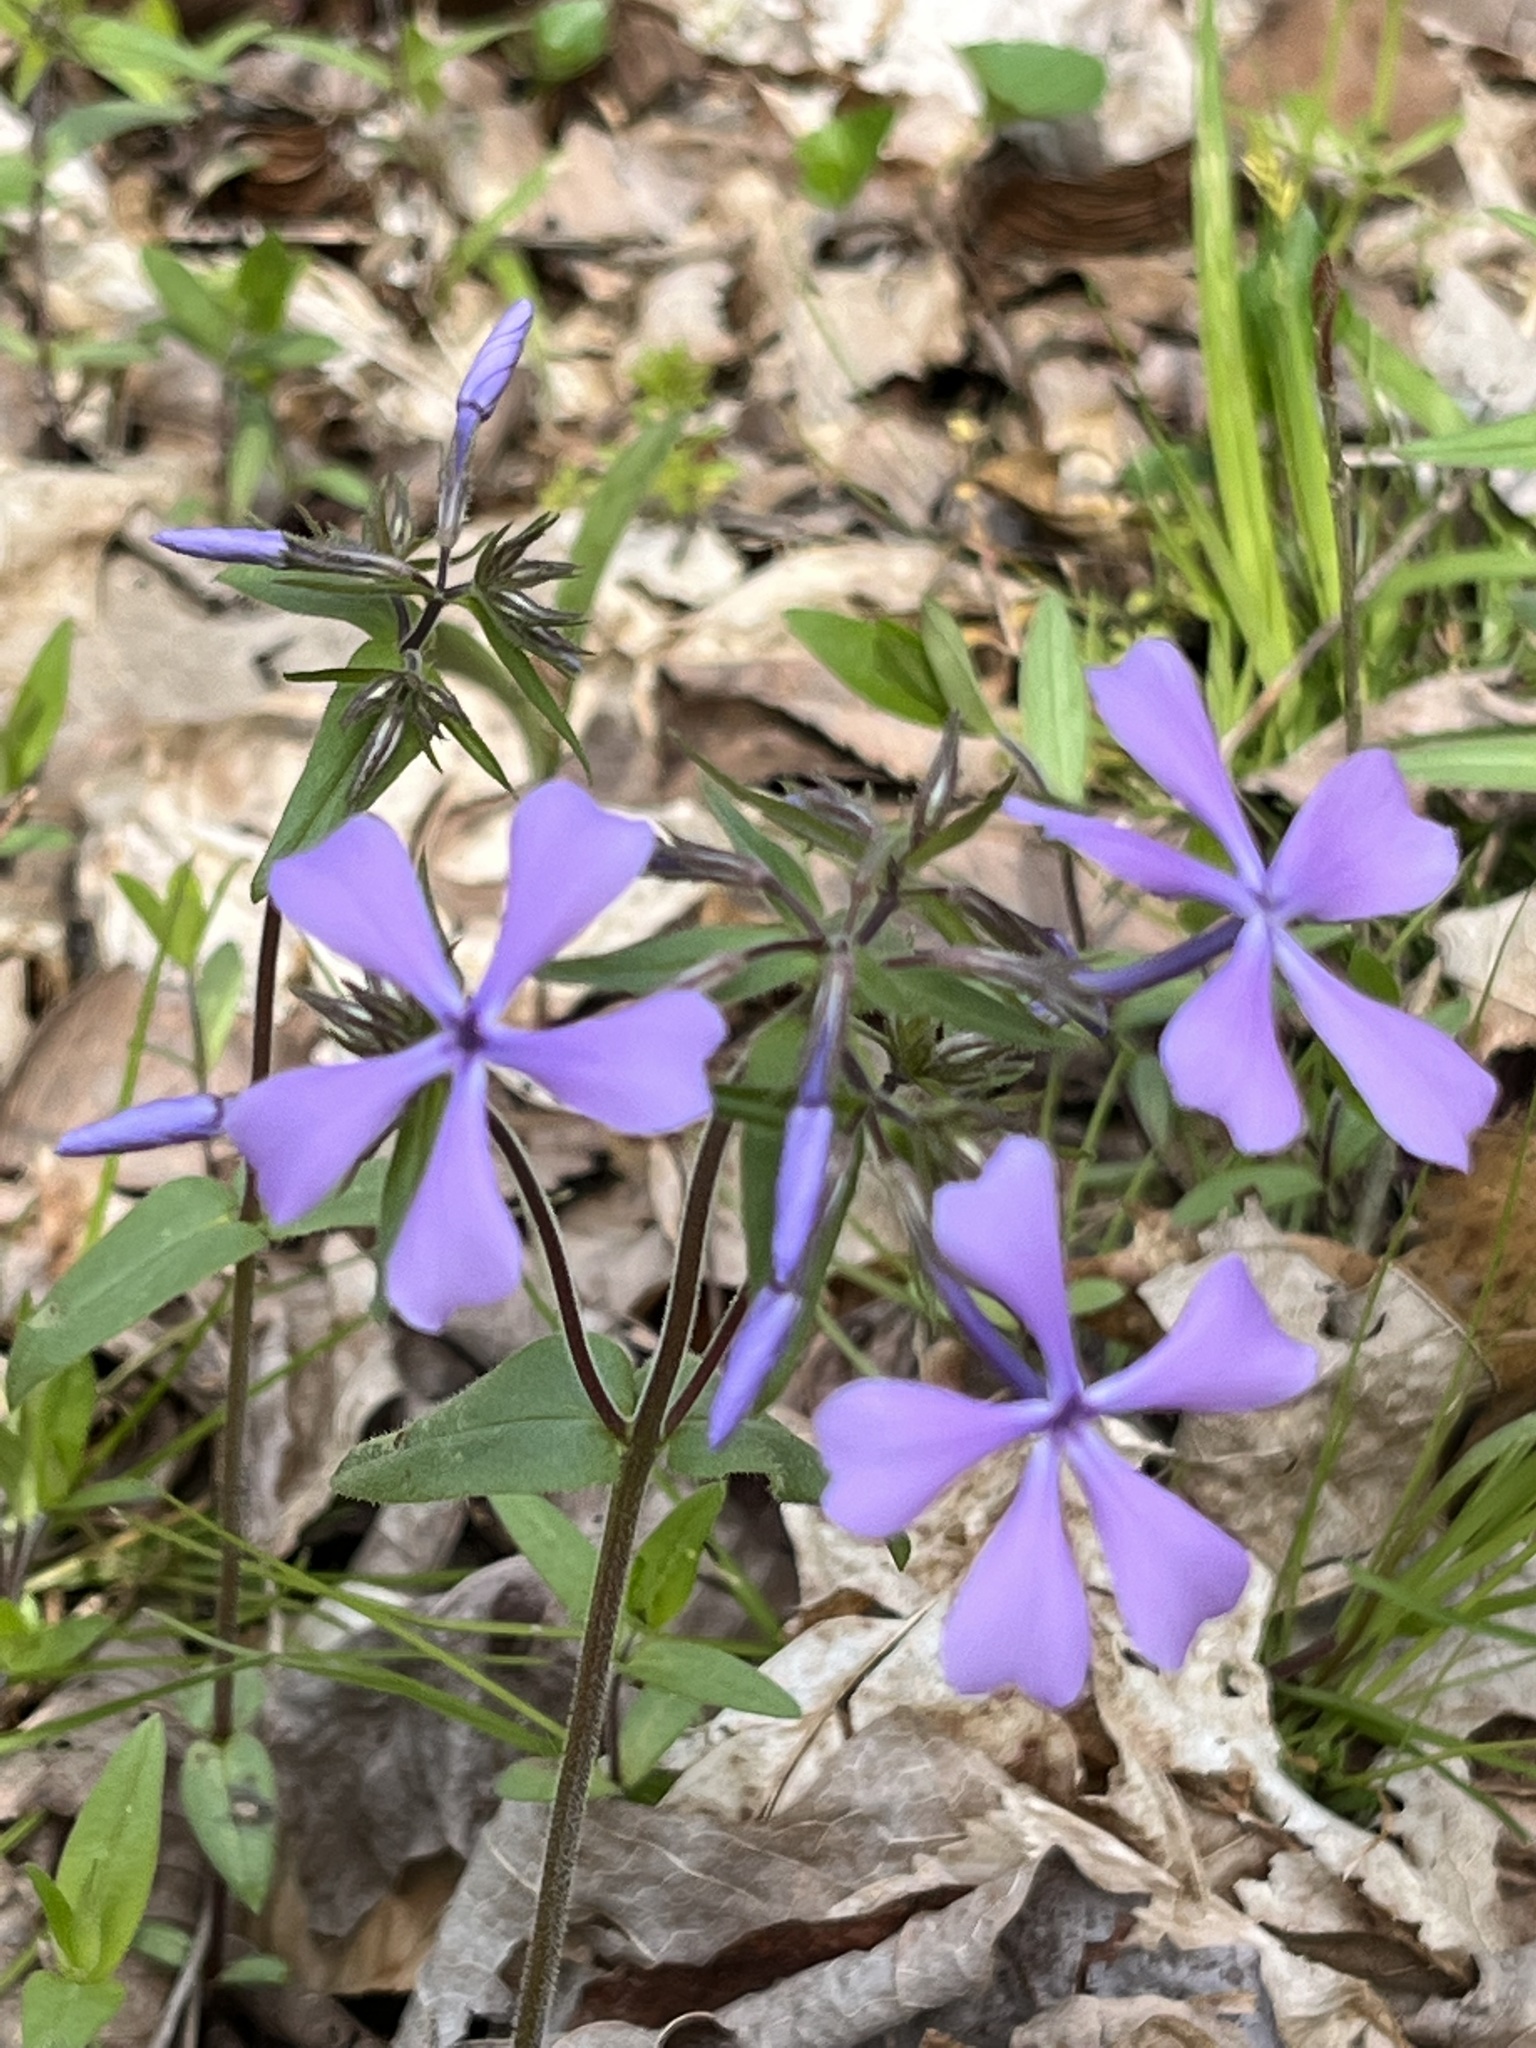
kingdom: Plantae
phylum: Tracheophyta
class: Magnoliopsida
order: Ericales
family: Polemoniaceae
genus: Phlox
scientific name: Phlox divaricata
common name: Blue phlox
